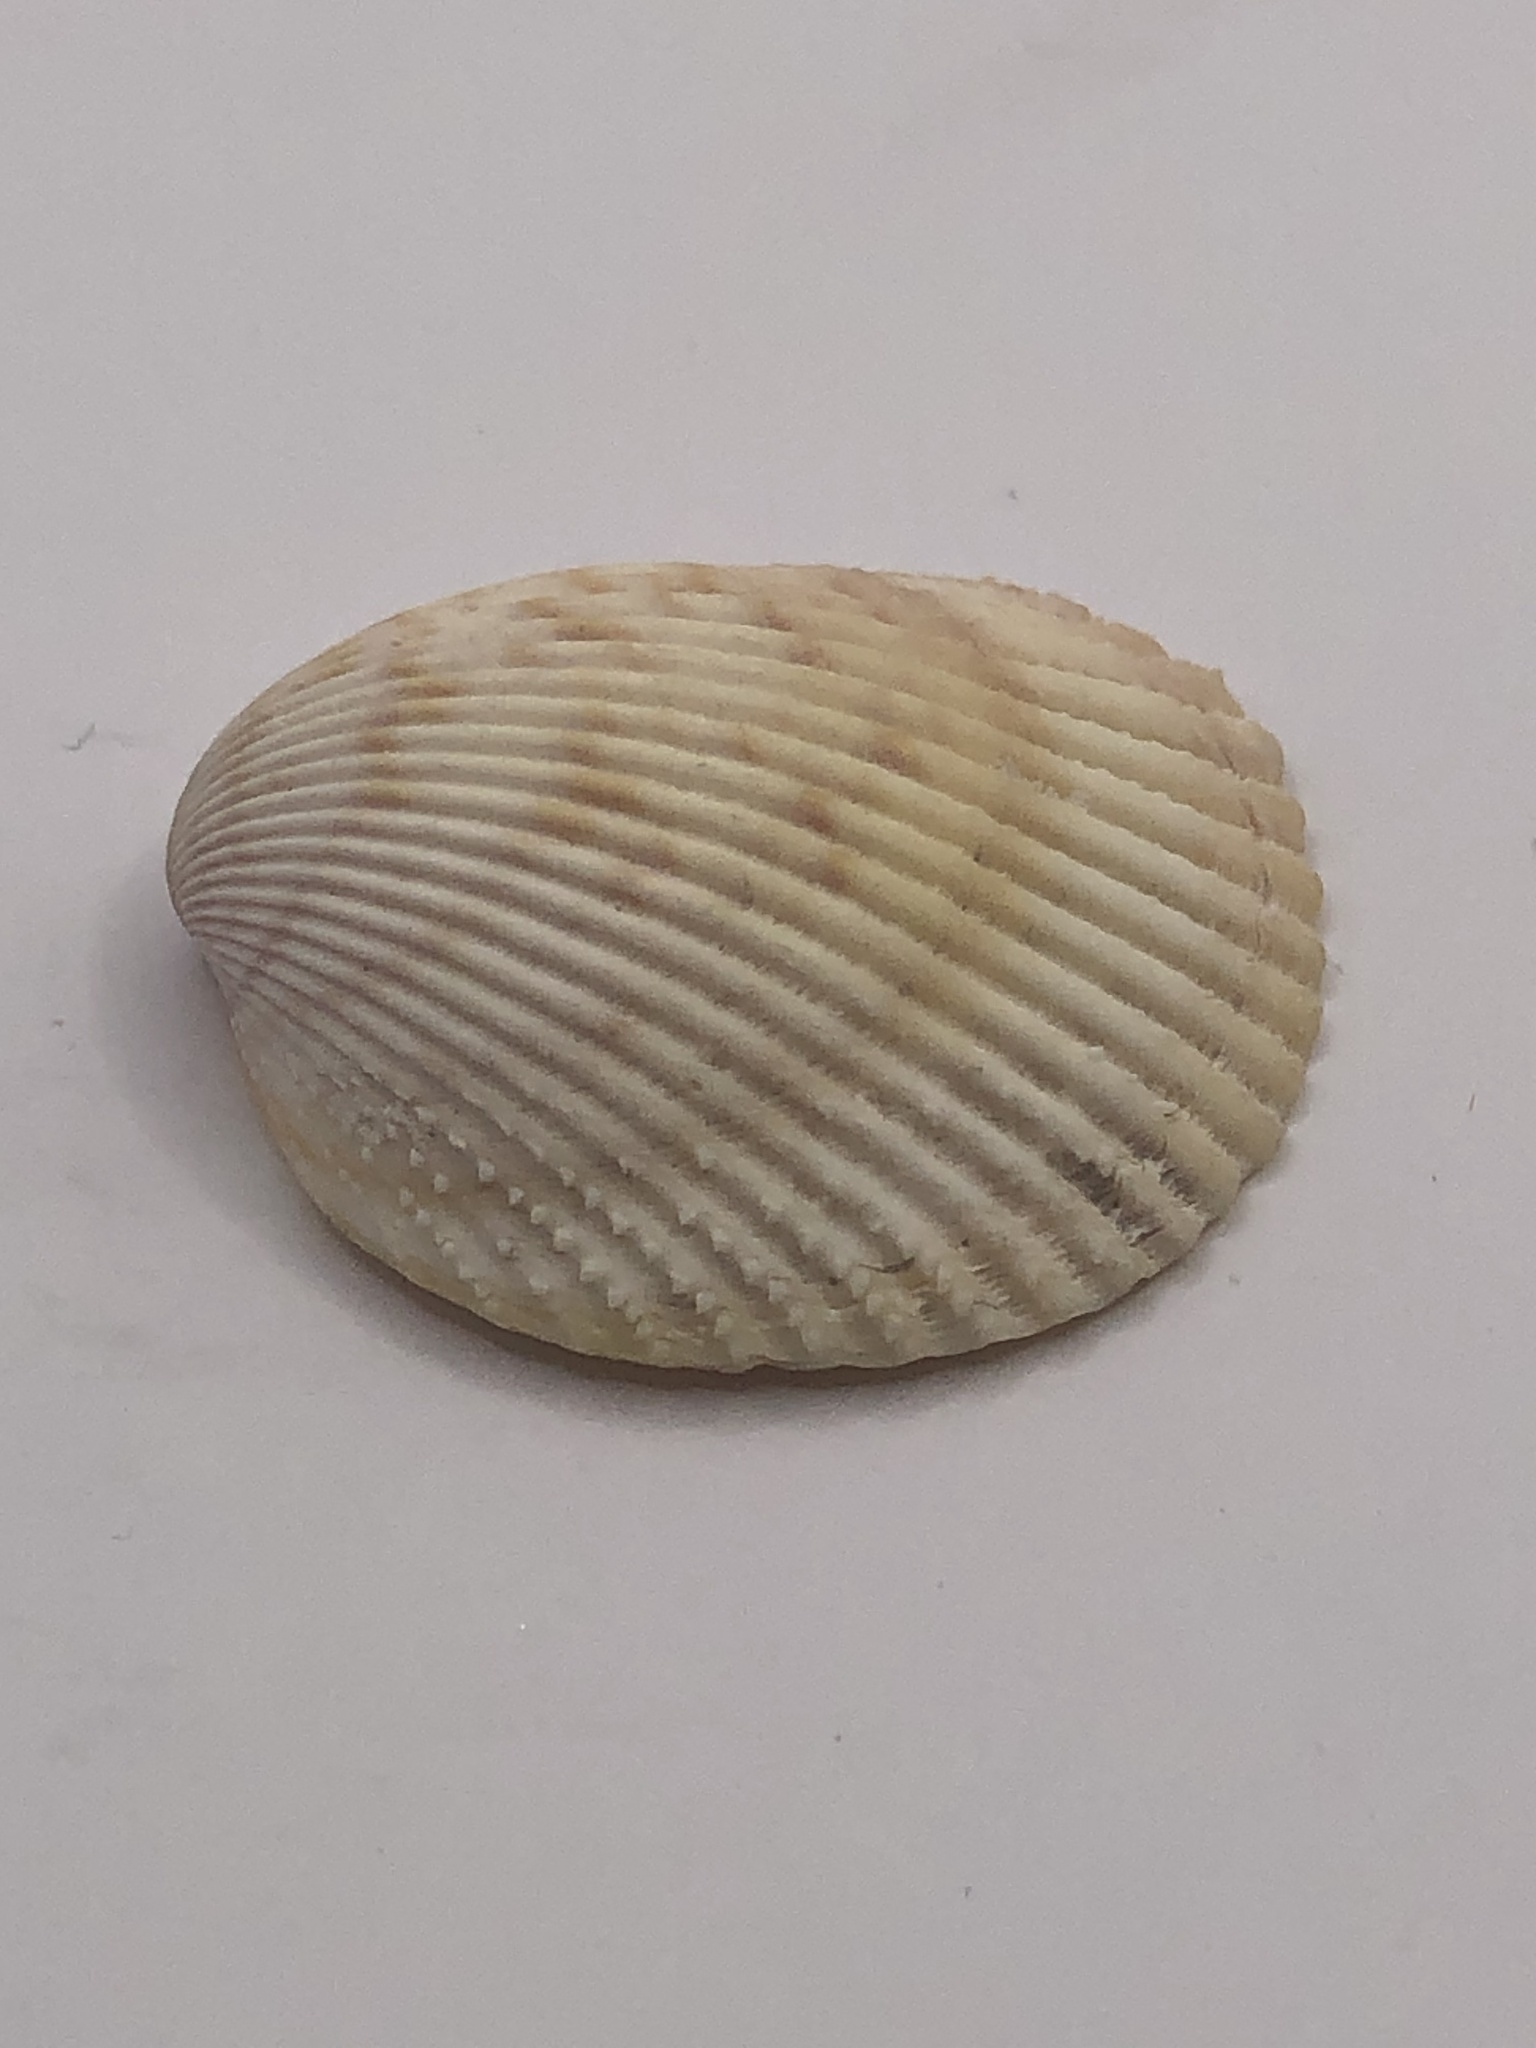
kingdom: Animalia
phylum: Mollusca
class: Bivalvia
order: Cardiida
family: Cardiidae
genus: Dallocardia
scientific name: Dallocardia muricata
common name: Yellow pricklycockle
